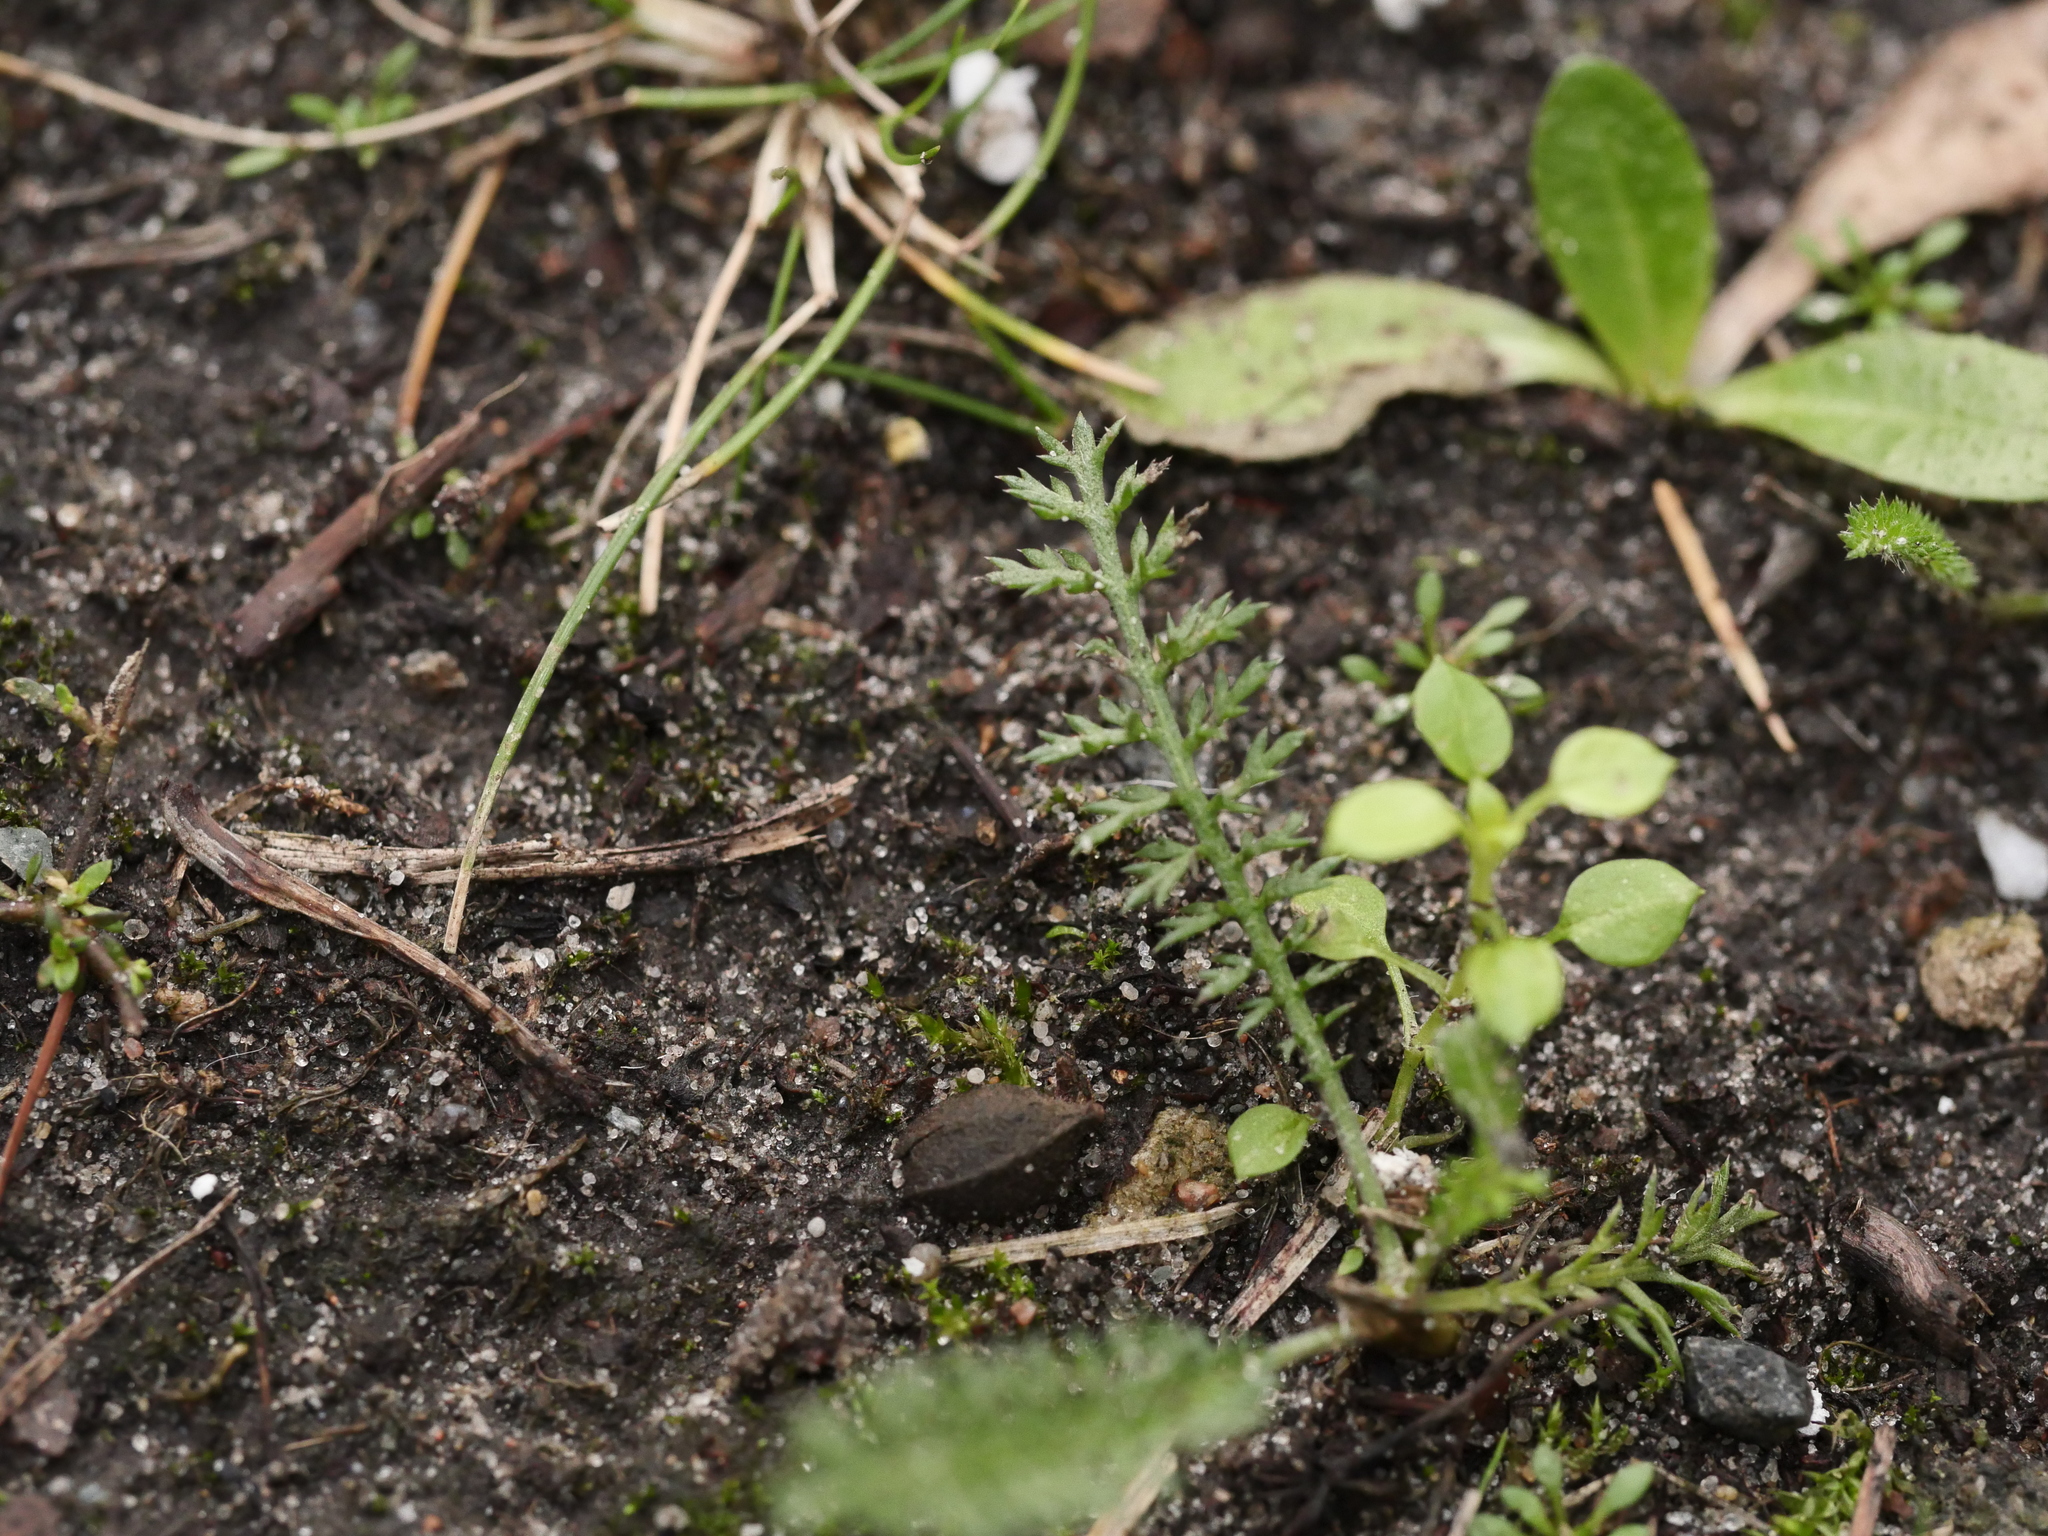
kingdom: Plantae
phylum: Tracheophyta
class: Magnoliopsida
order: Asterales
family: Asteraceae
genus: Achillea
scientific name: Achillea millefolium
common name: Yarrow
